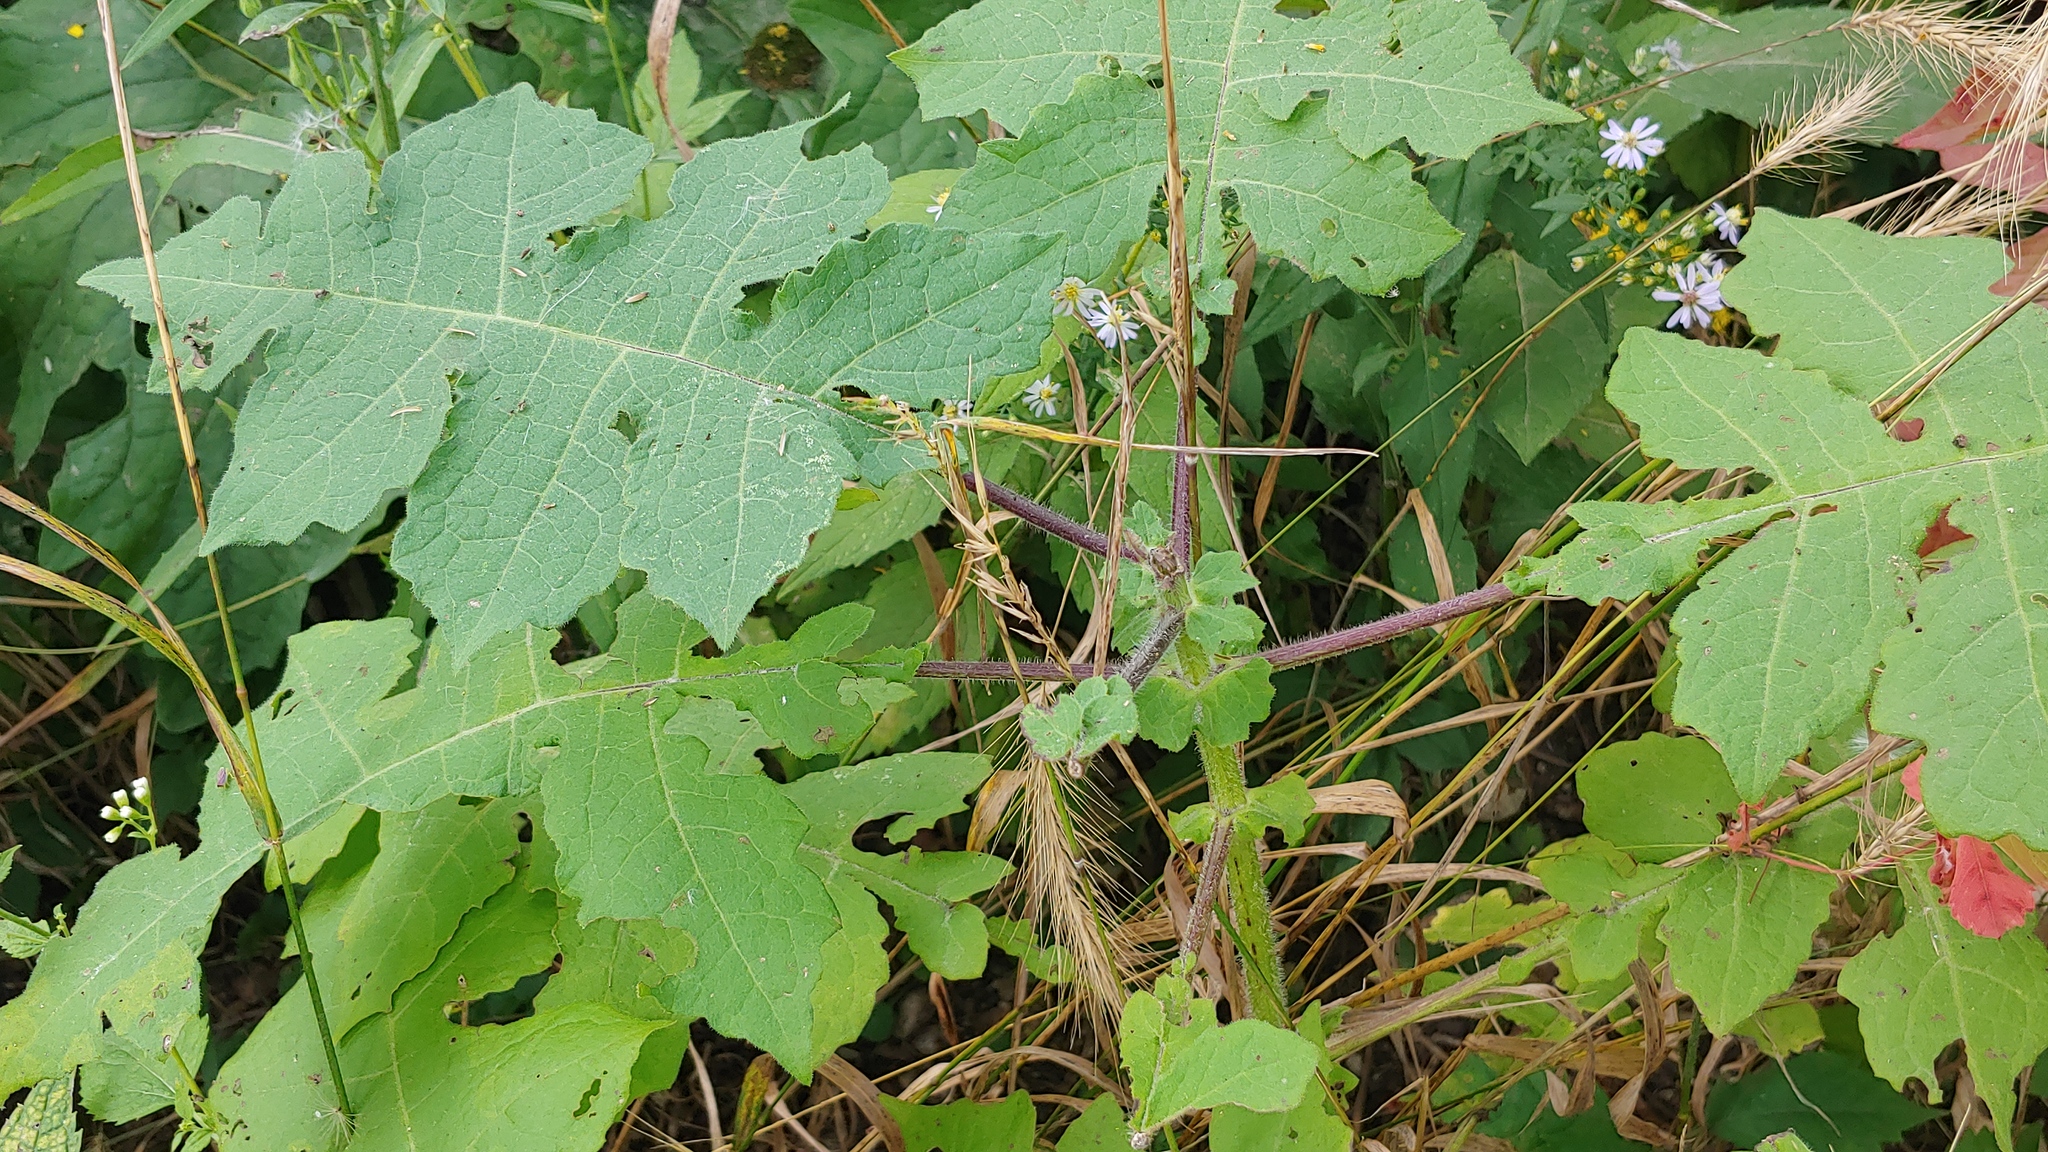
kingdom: Plantae
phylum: Tracheophyta
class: Magnoliopsida
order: Asterales
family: Asteraceae
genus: Polymnia
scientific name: Polymnia canadensis
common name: Pale-flowered leafcup
